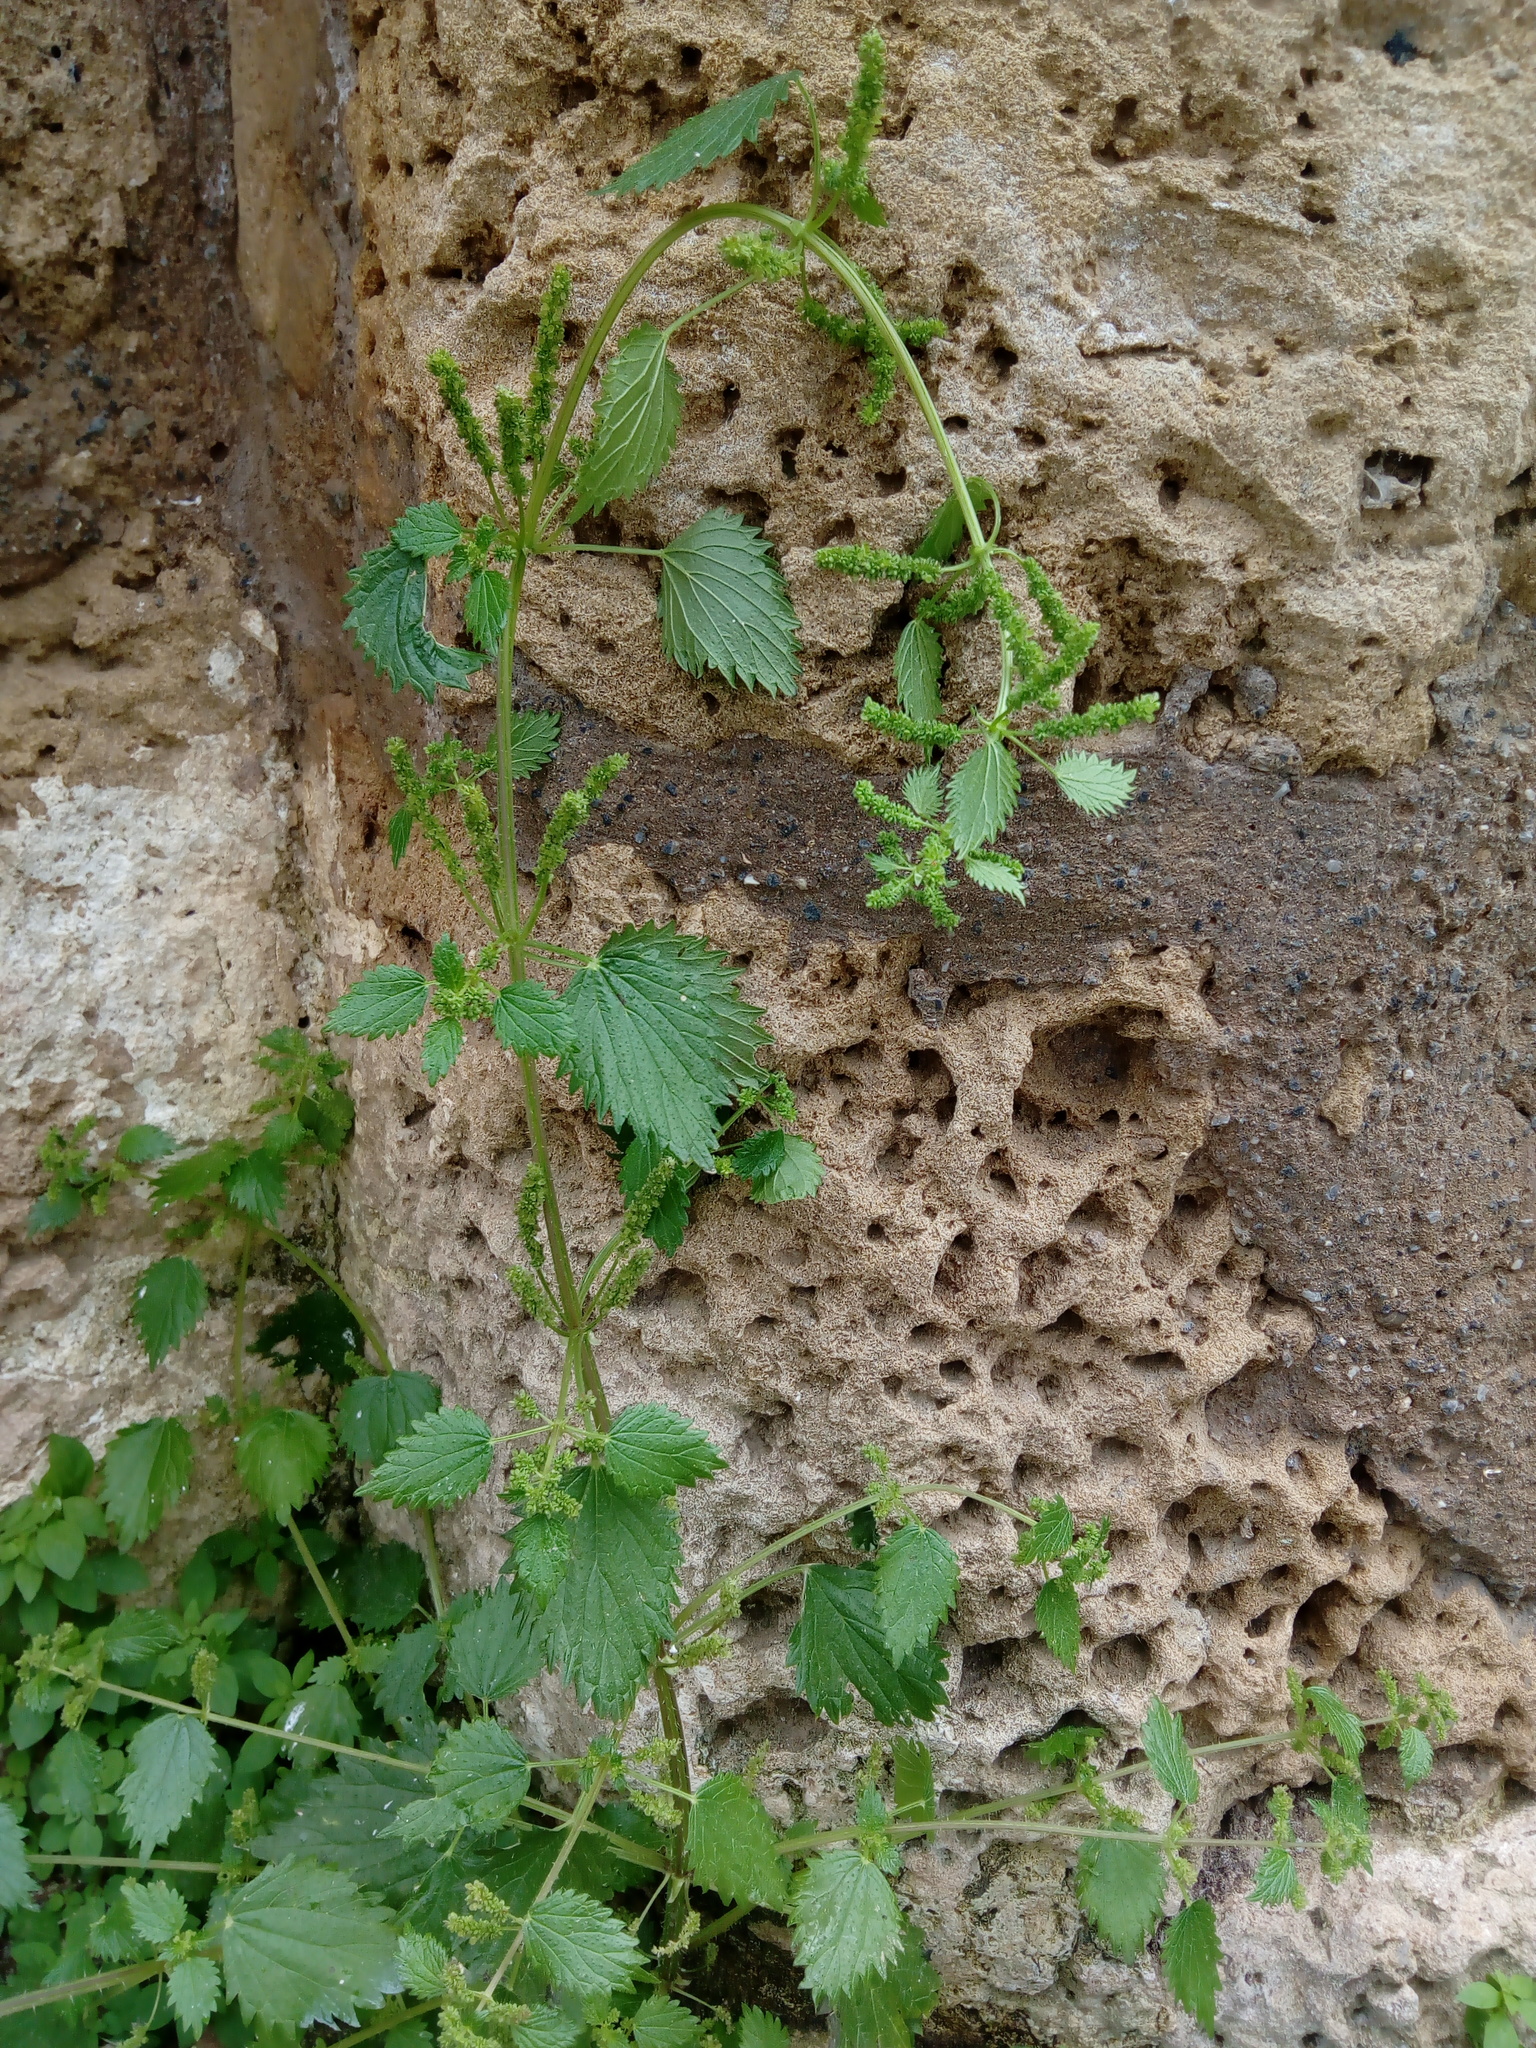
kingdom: Plantae
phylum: Tracheophyta
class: Magnoliopsida
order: Rosales
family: Urticaceae
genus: Urtica
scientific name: Urtica pilulifera
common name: Roman nettle
